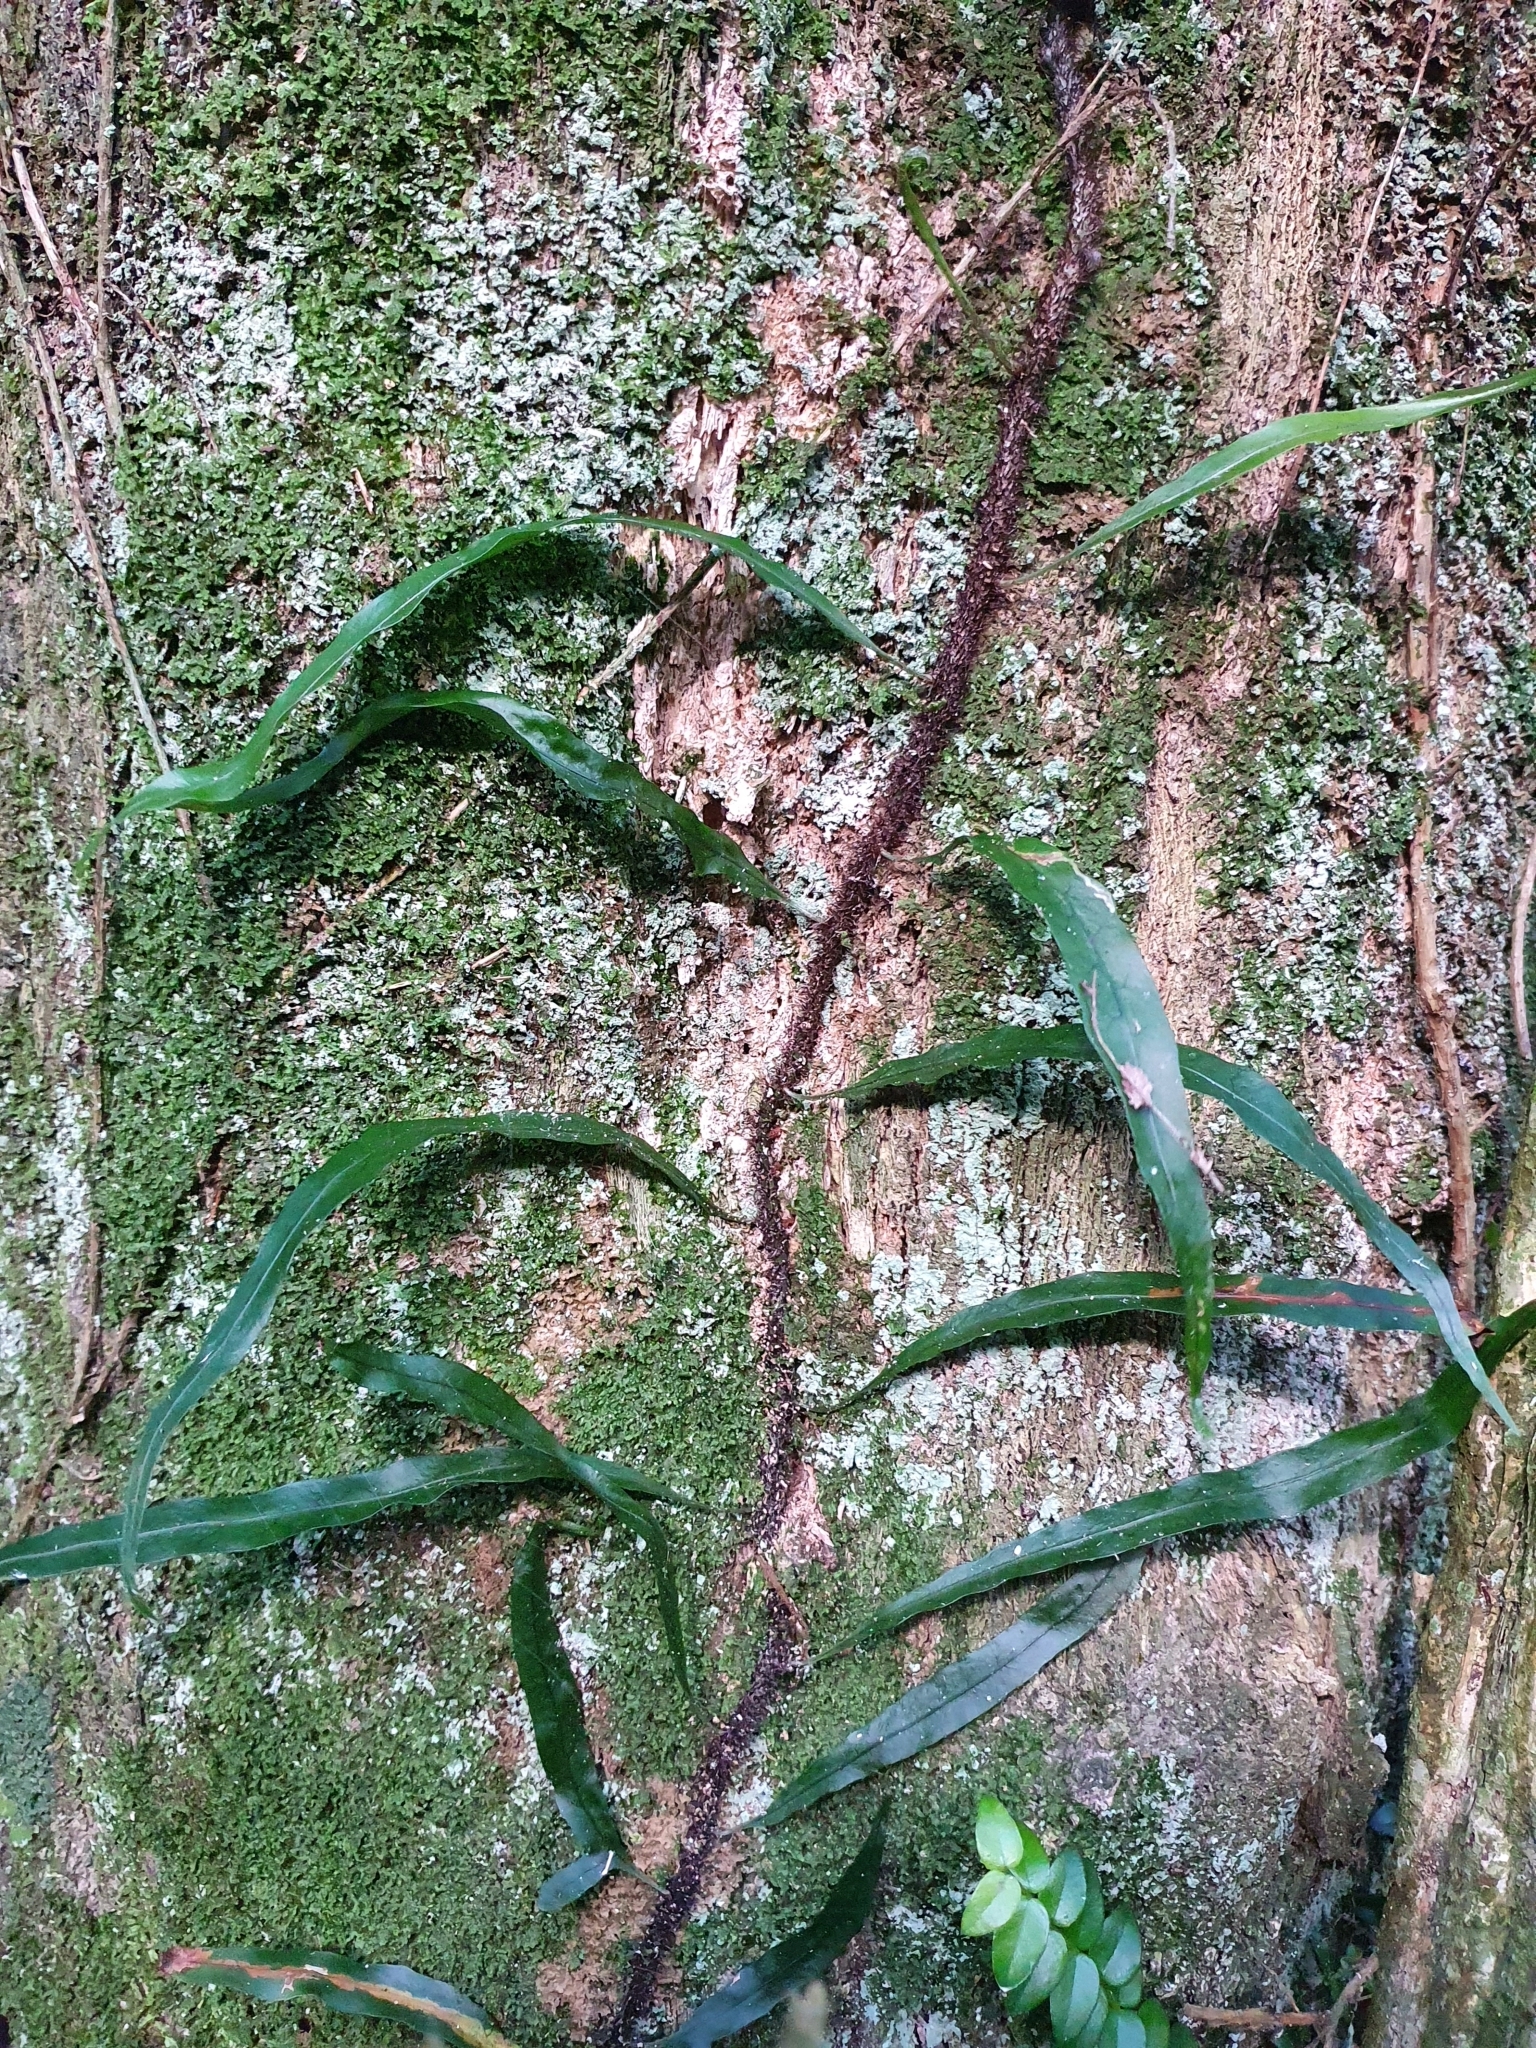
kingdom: Plantae
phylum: Tracheophyta
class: Polypodiopsida
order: Polypodiales
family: Polypodiaceae
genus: Lecanopteris
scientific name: Lecanopteris scandens
